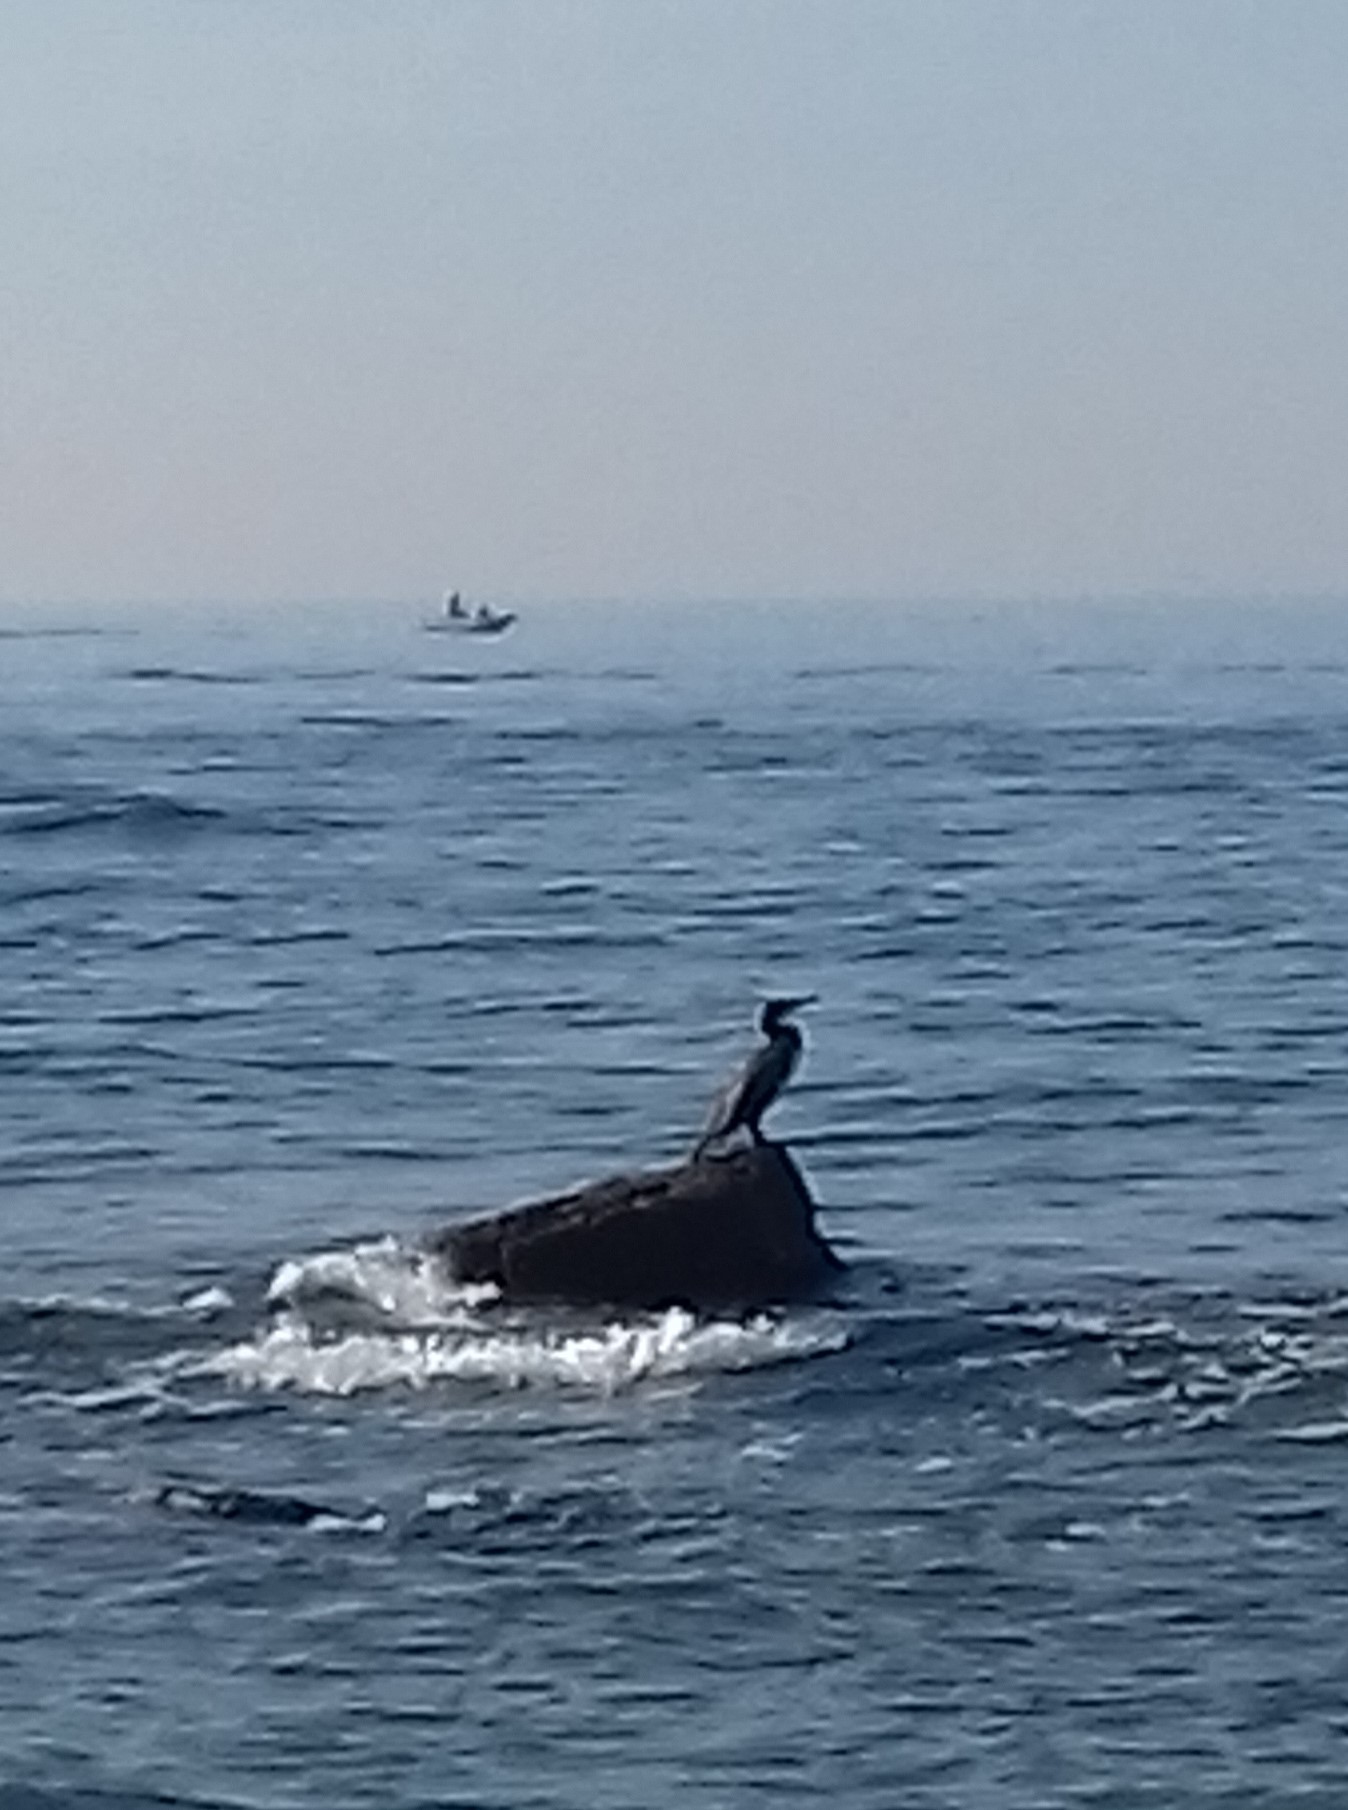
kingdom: Animalia
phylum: Chordata
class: Aves
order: Suliformes
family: Phalacrocoracidae
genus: Phalacrocorax
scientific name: Phalacrocorax carbo
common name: Great cormorant
